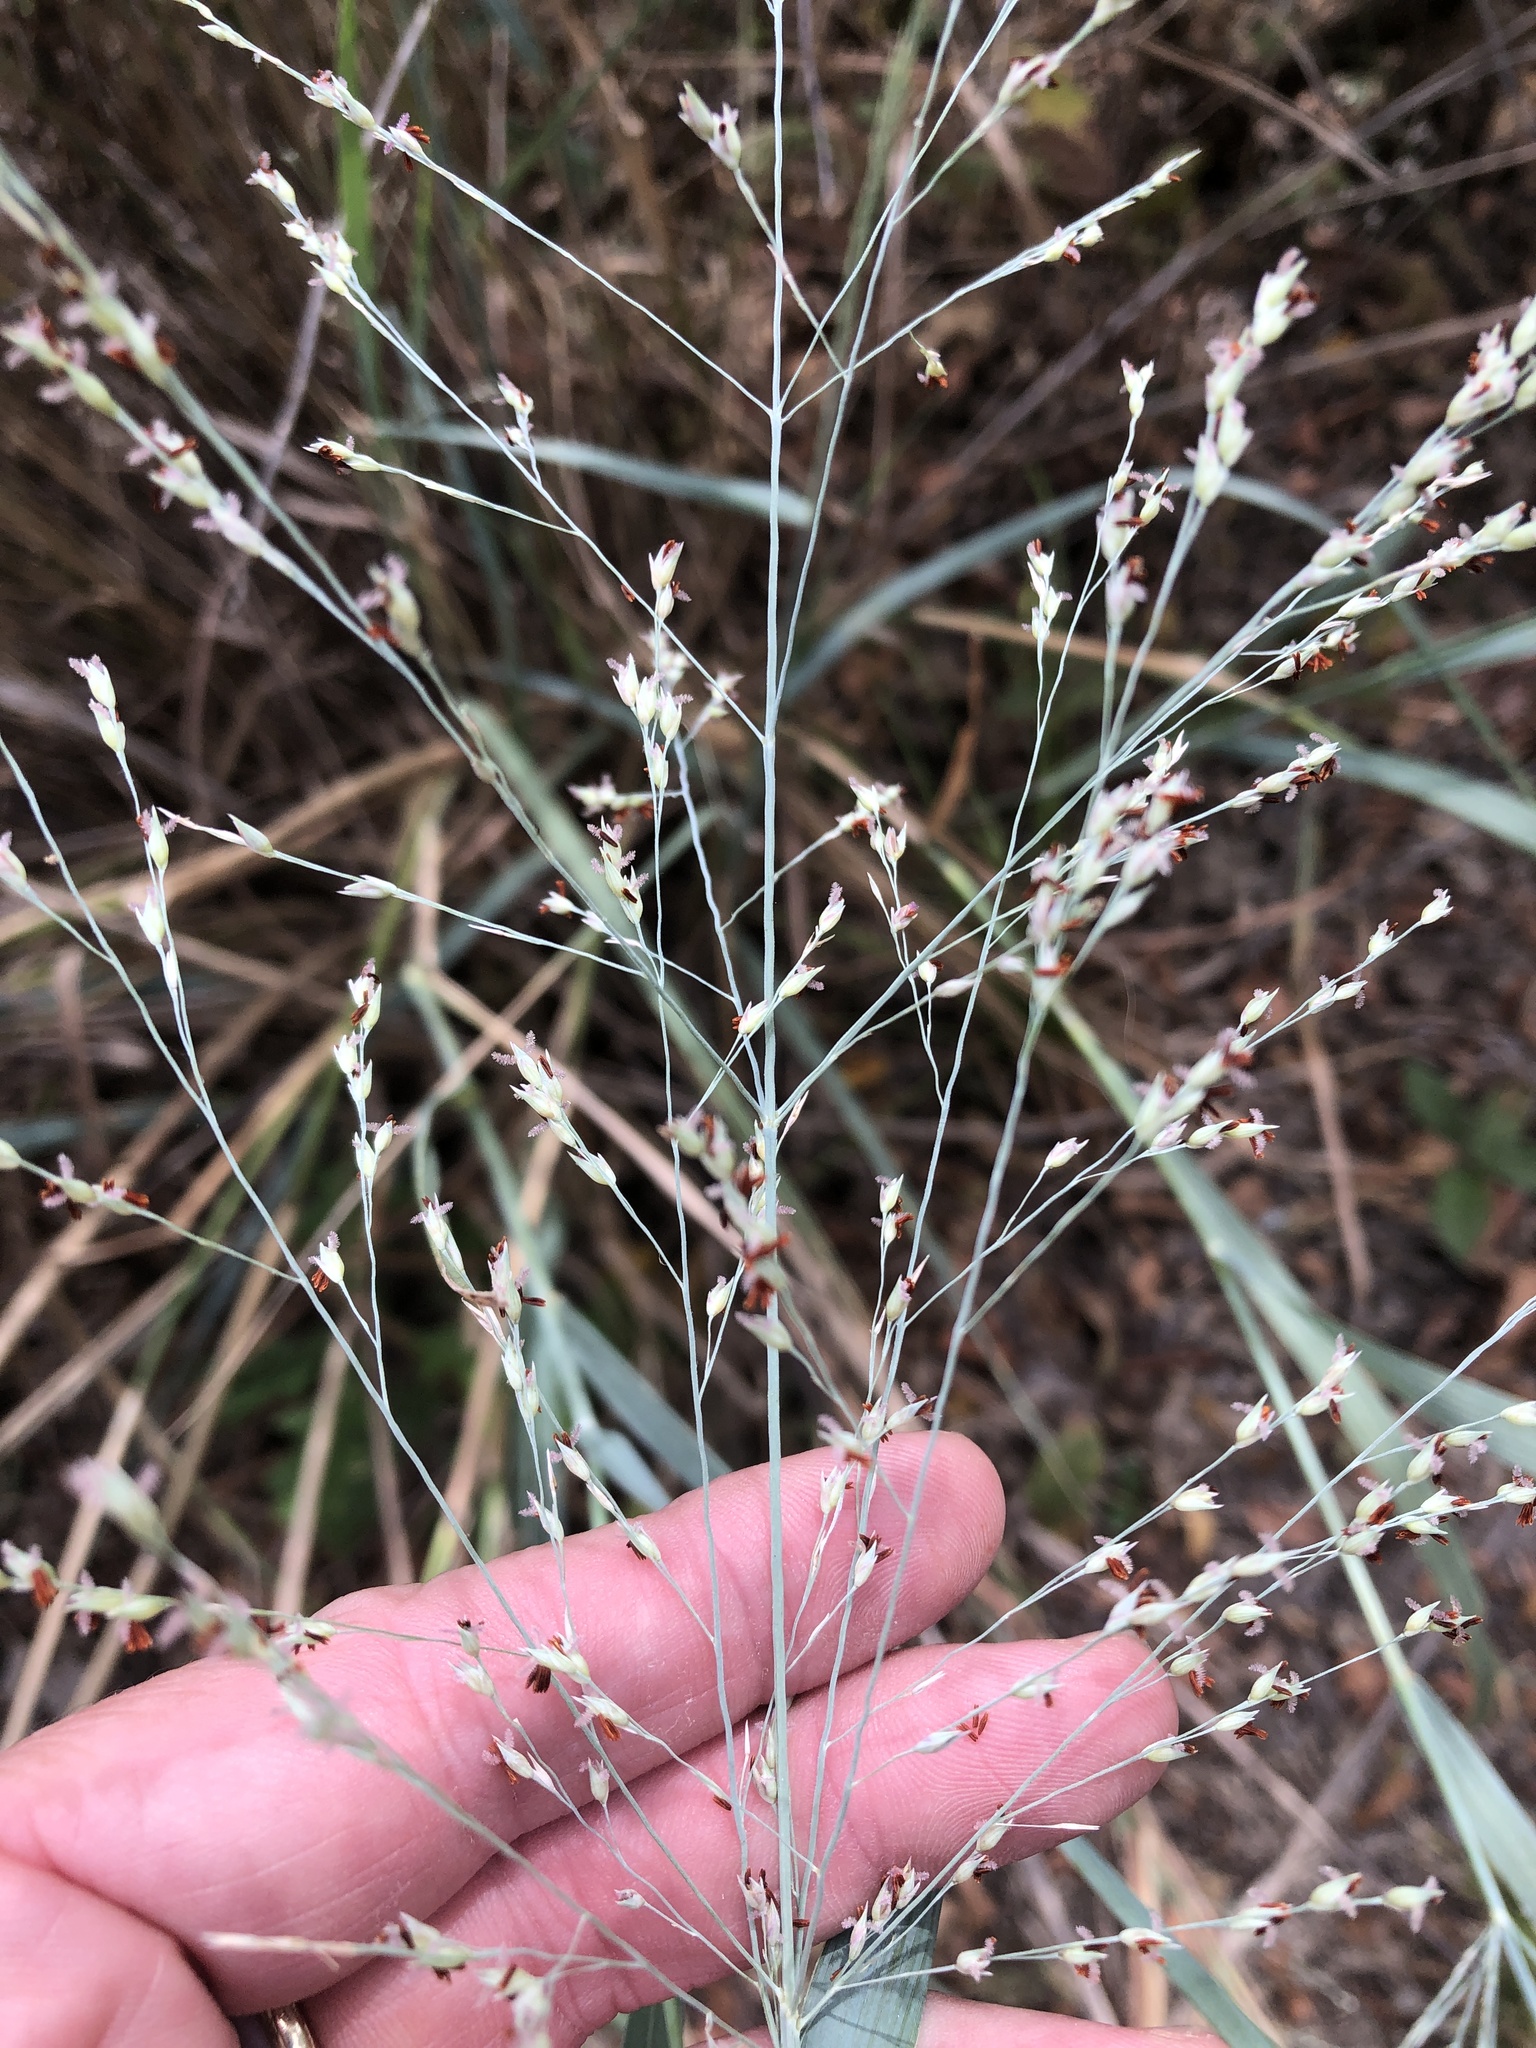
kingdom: Plantae
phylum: Tracheophyta
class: Liliopsida
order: Poales
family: Poaceae
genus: Panicum
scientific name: Panicum virgatum
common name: Switchgrass
